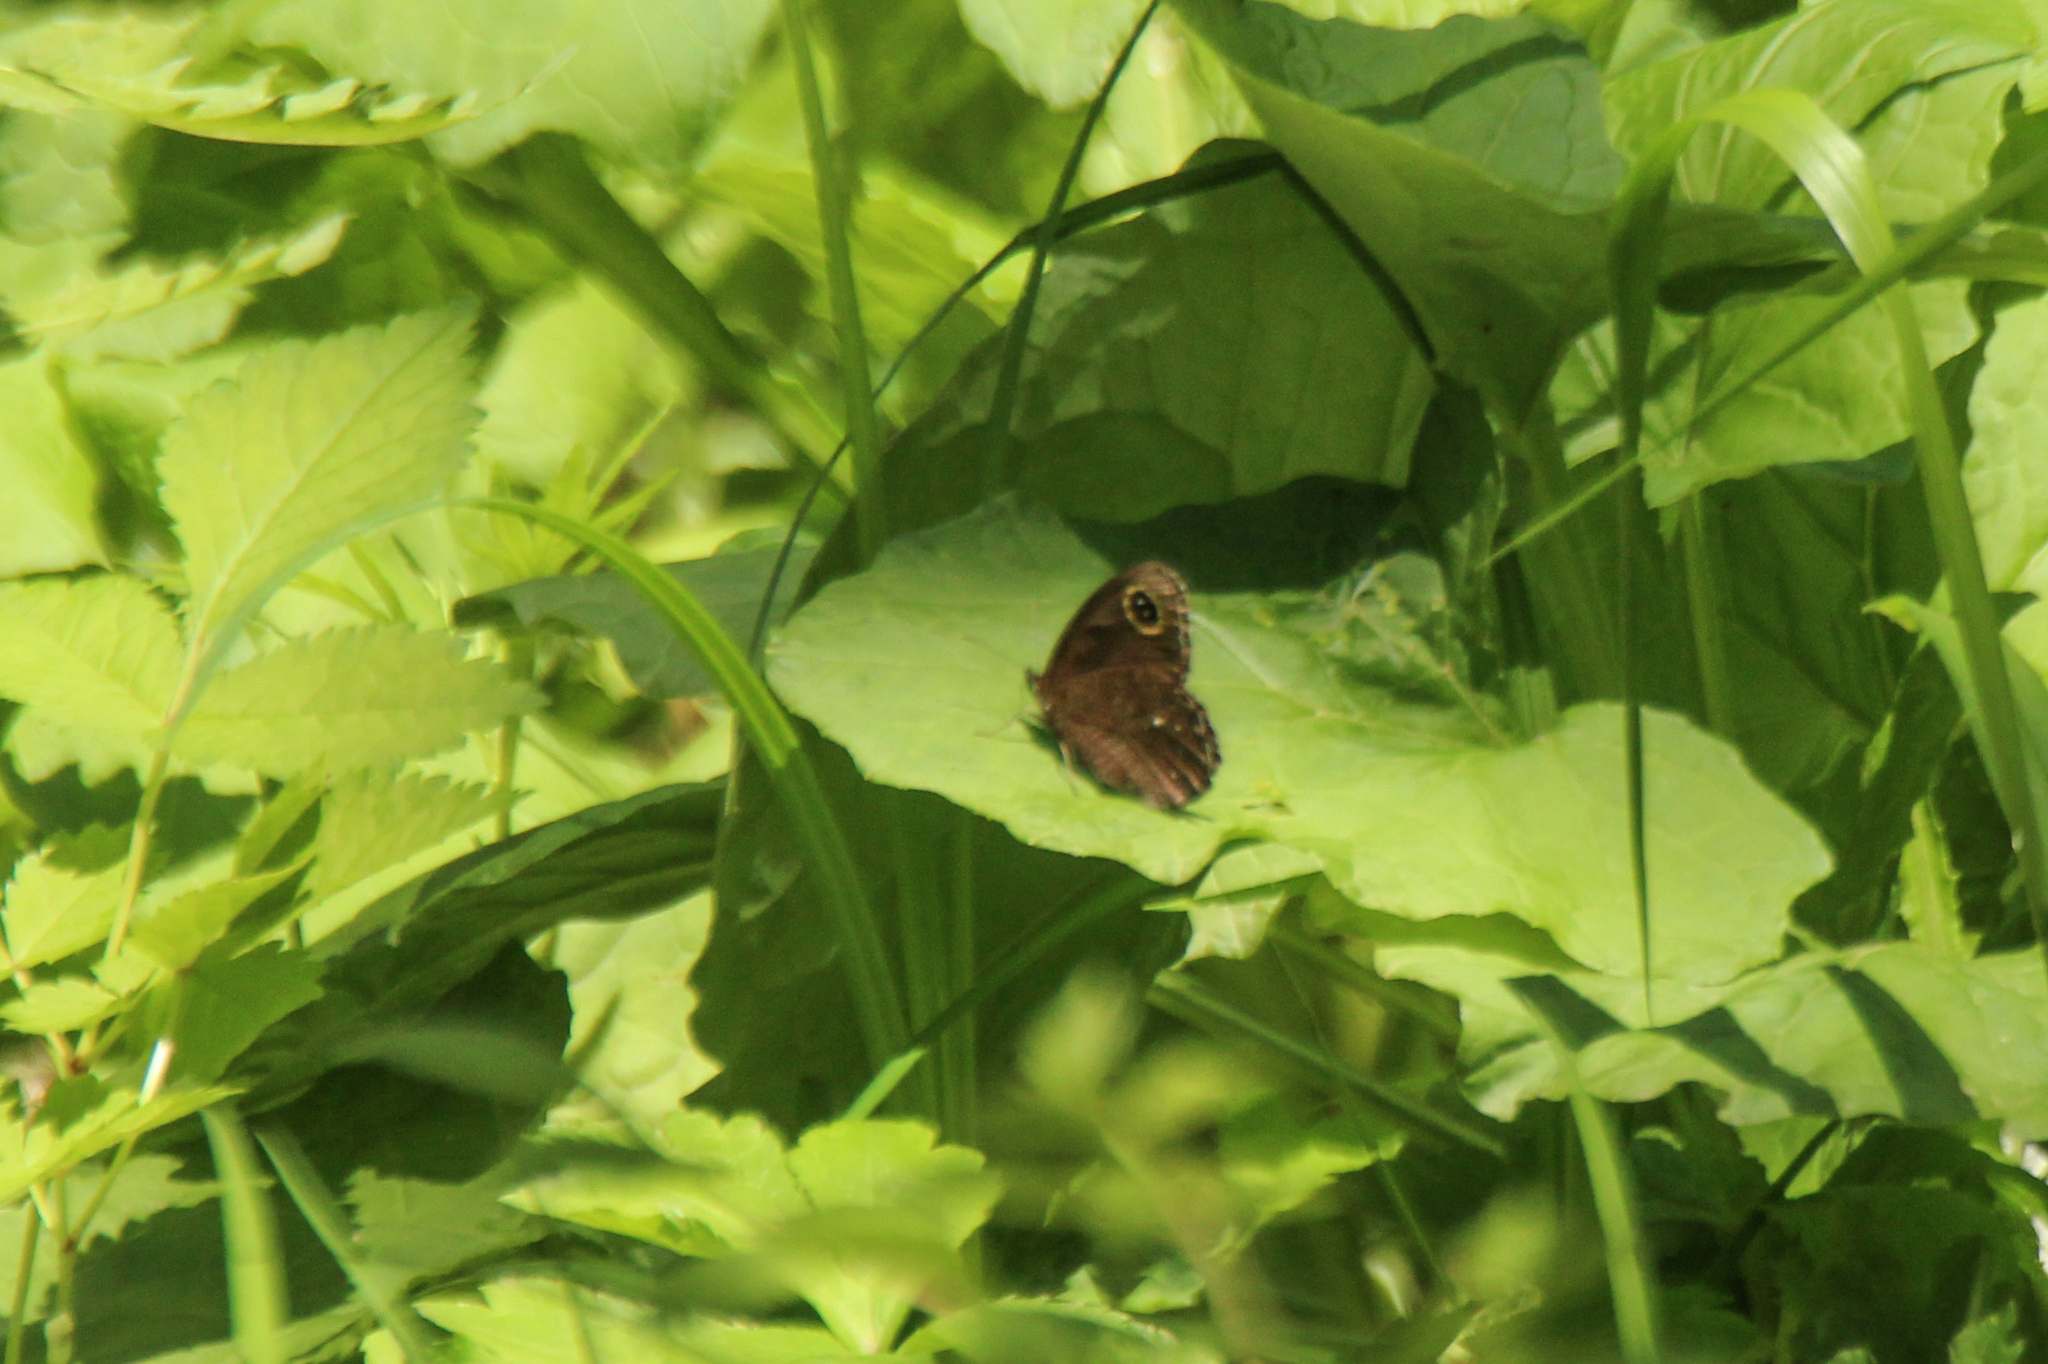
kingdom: Animalia
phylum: Arthropoda
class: Insecta
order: Lepidoptera
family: Nymphalidae
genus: Erebia
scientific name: Erebia tristis
